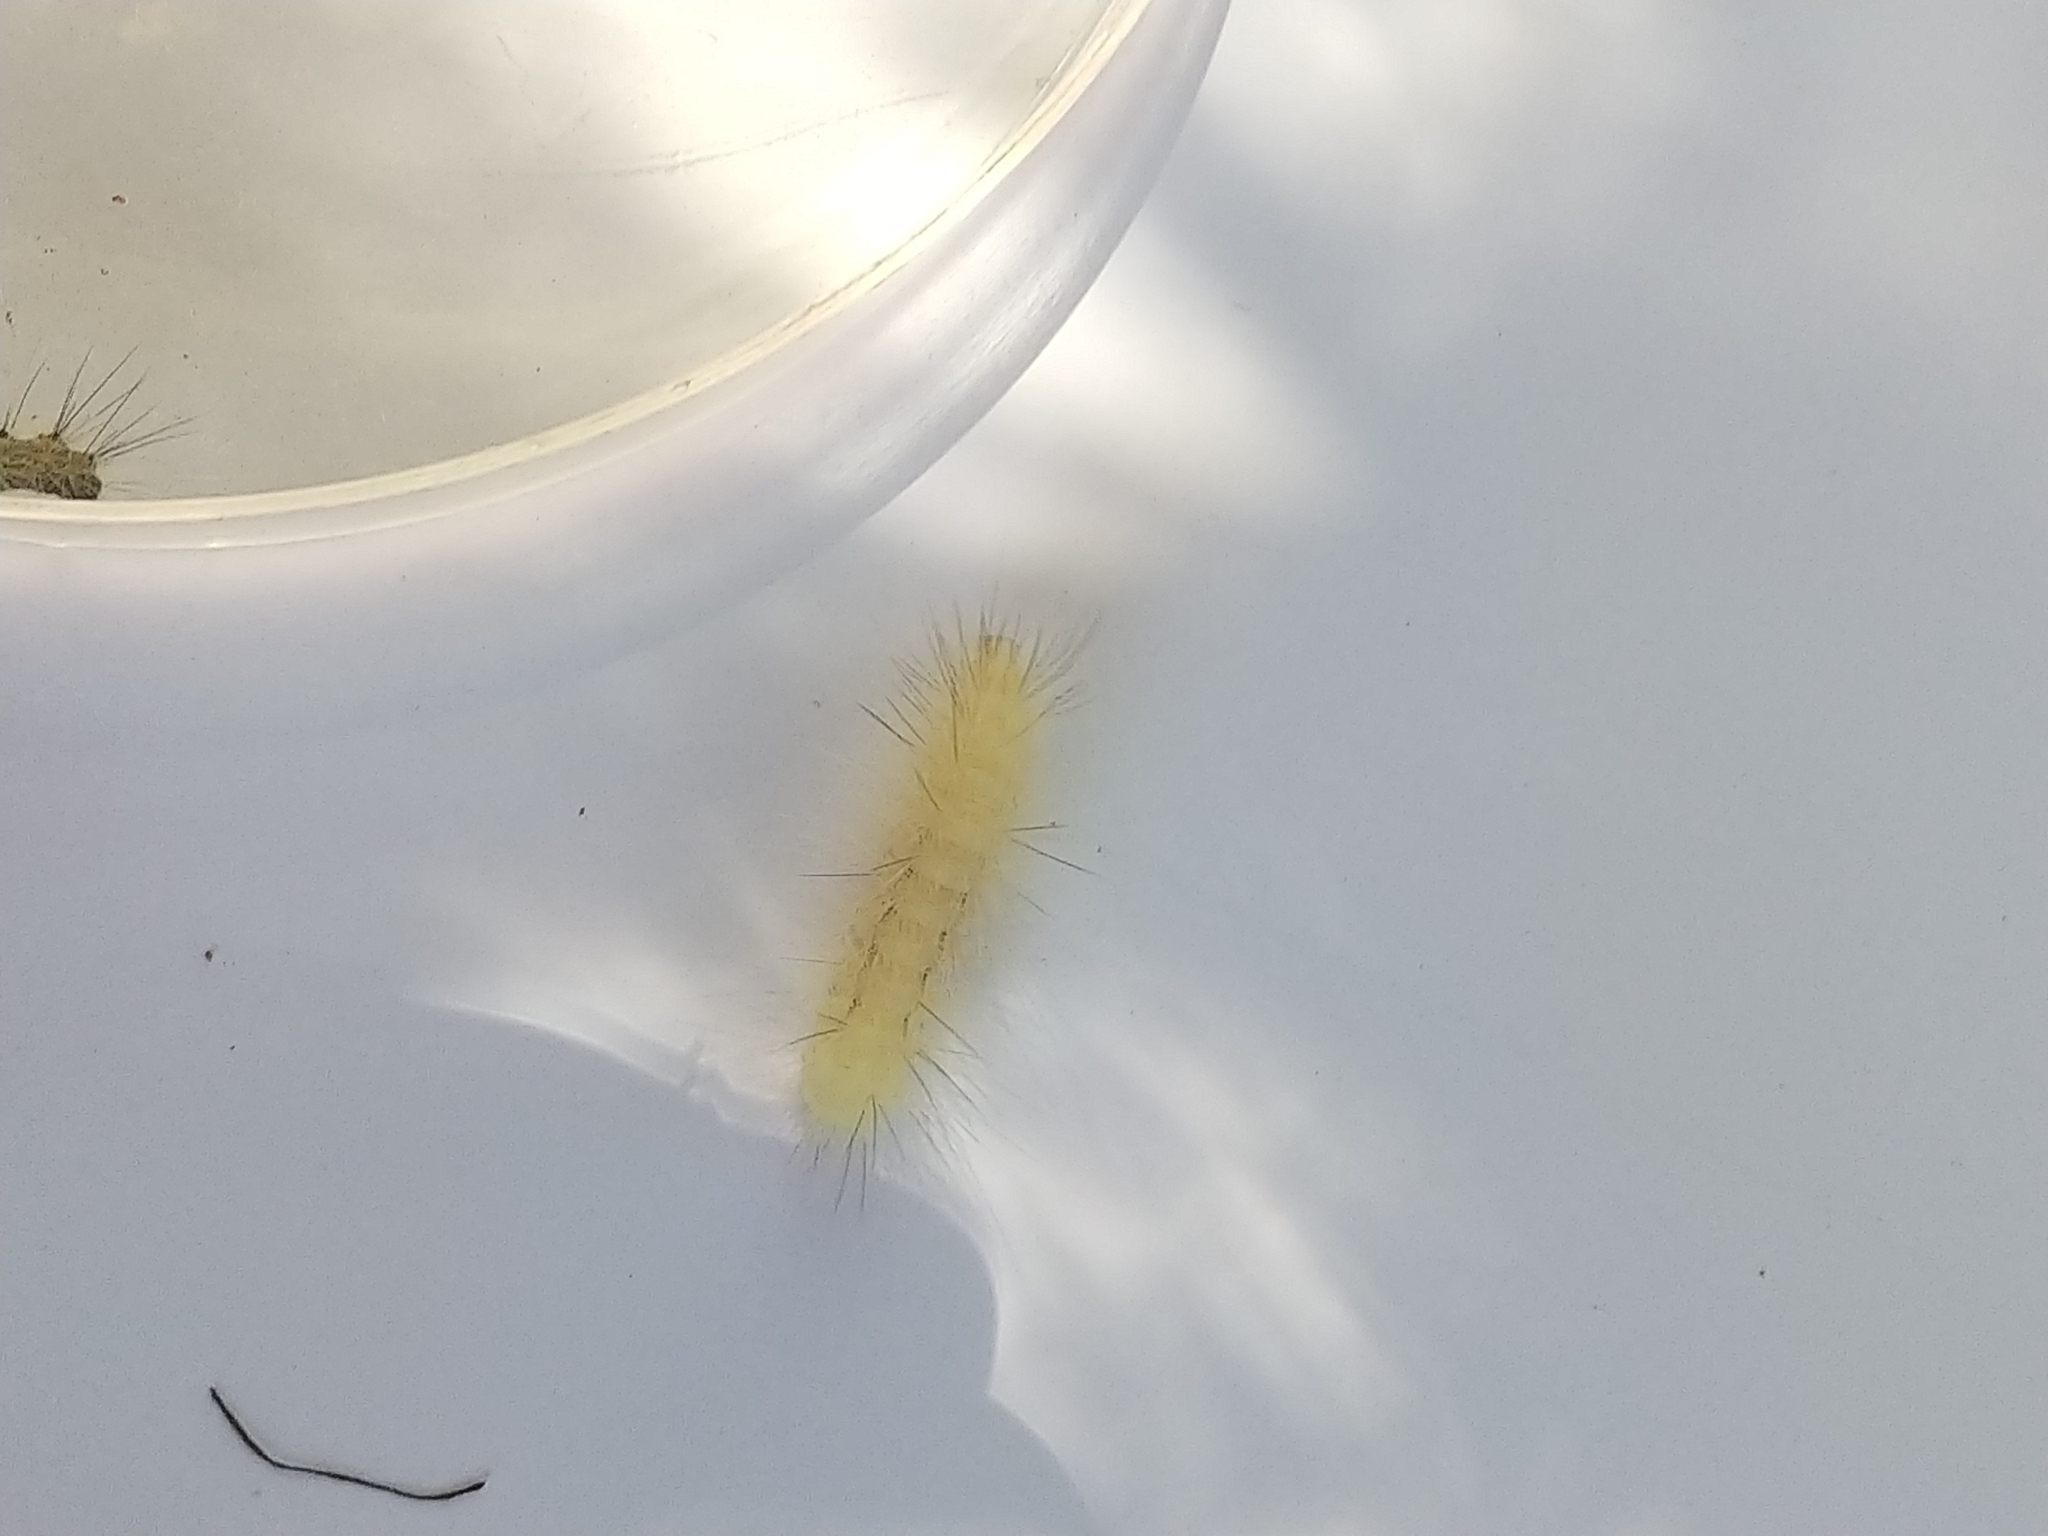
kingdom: Animalia
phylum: Arthropoda
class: Insecta
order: Lepidoptera
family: Erebidae
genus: Spilosoma
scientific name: Spilosoma virginica
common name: Virginia tiger moth
